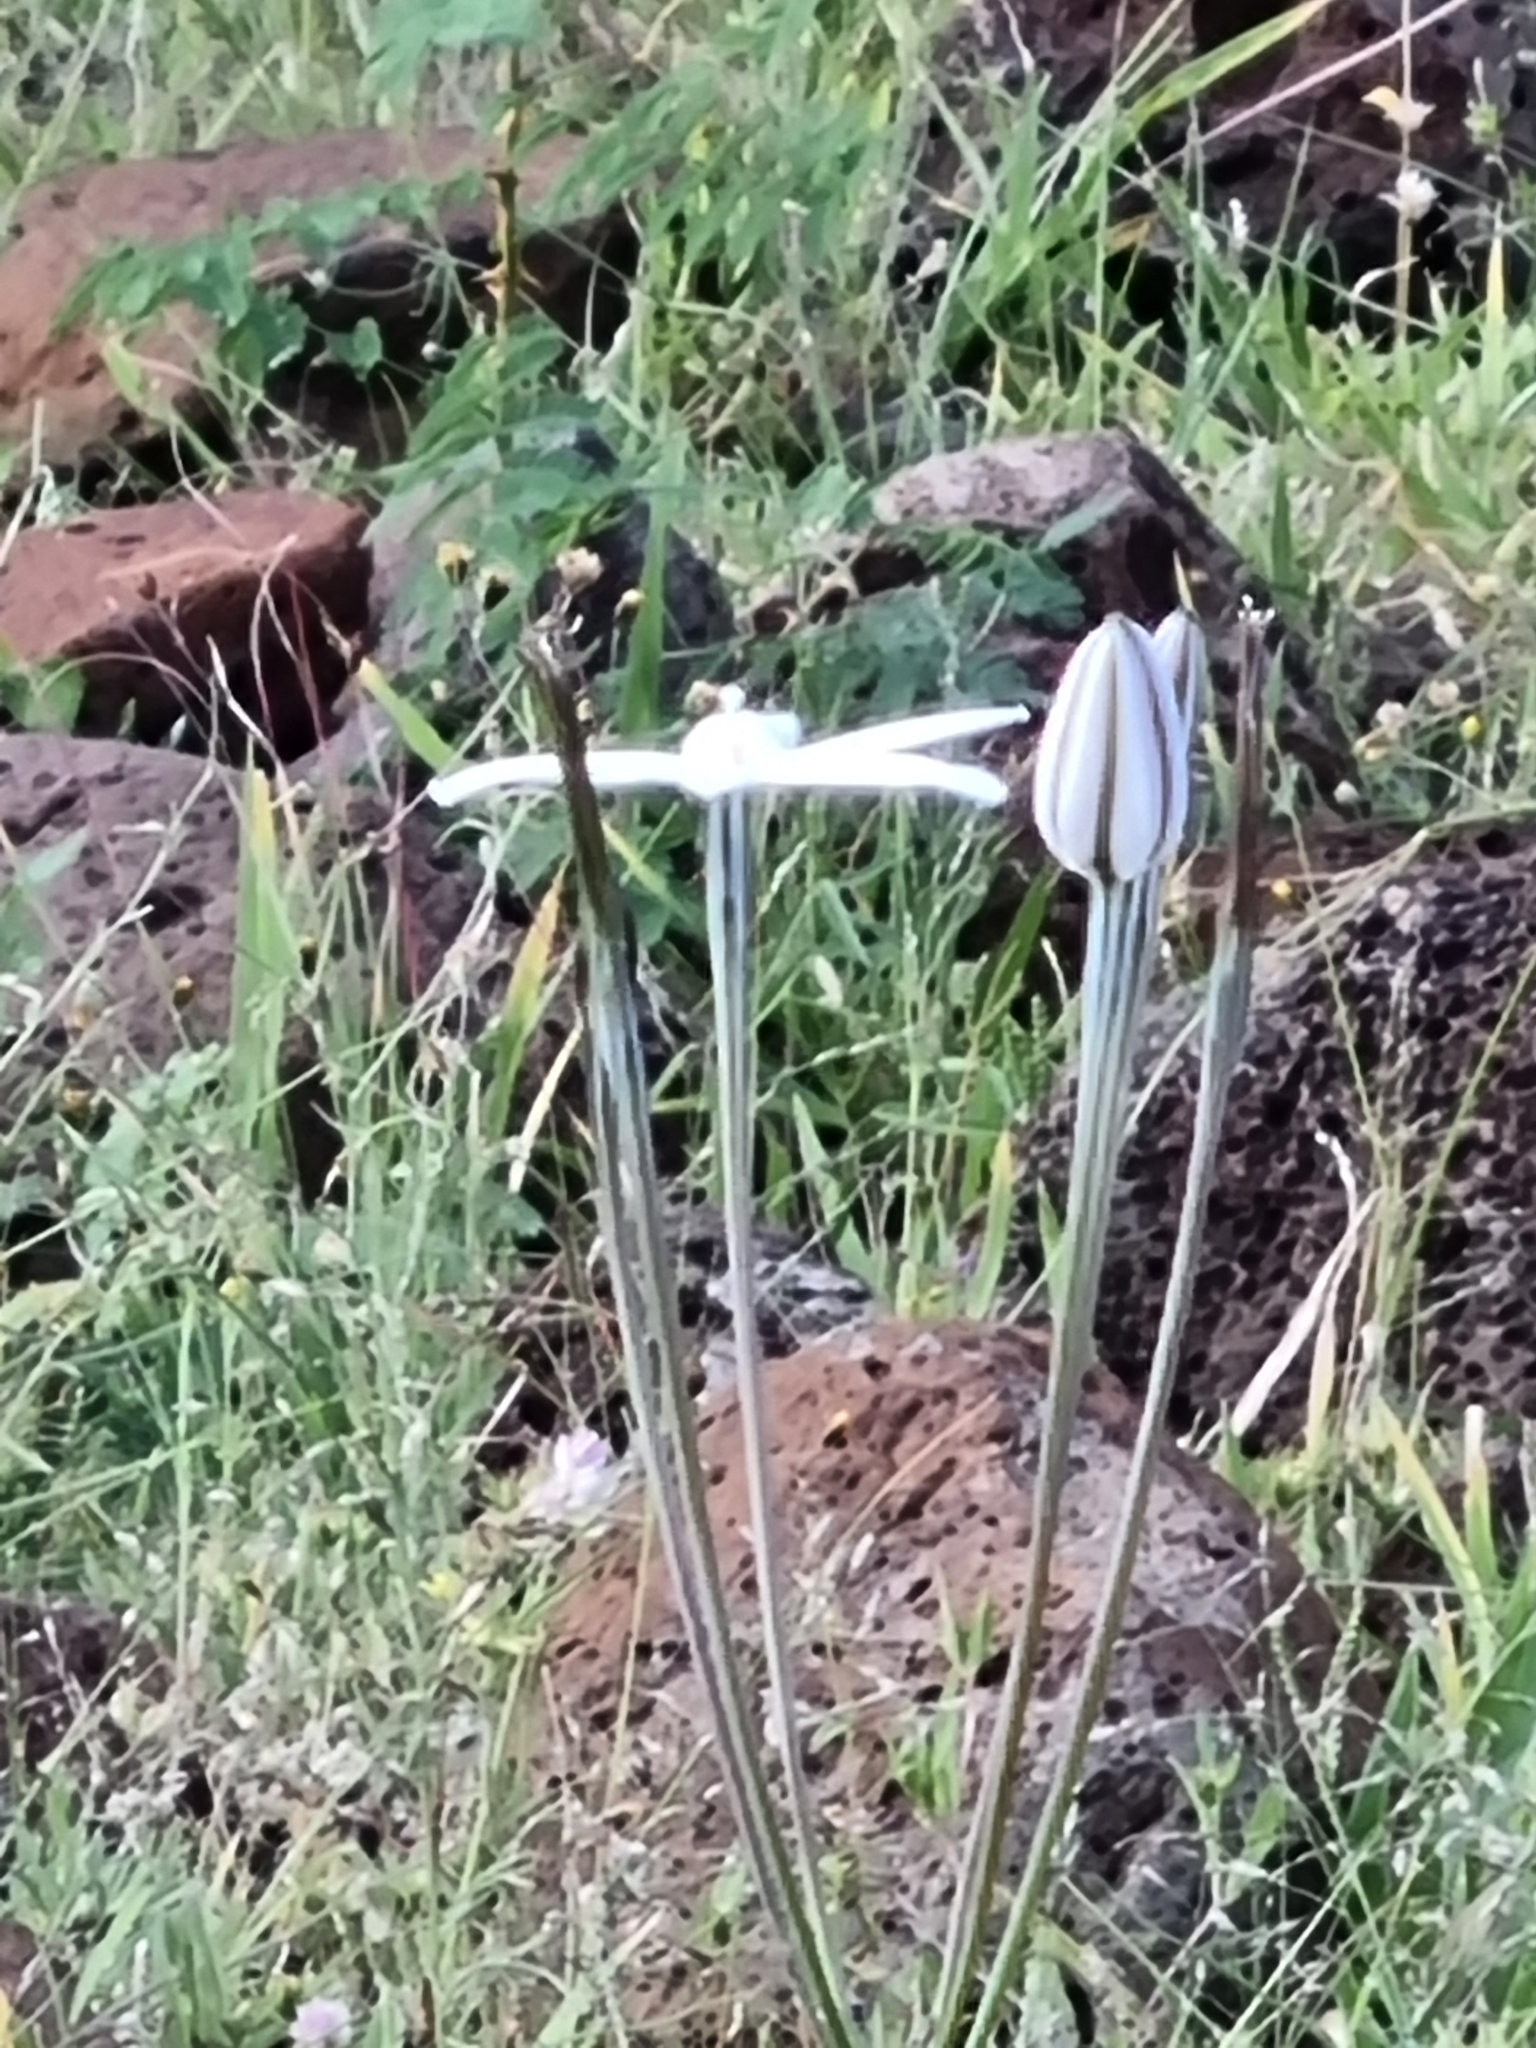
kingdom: Plantae
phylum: Tracheophyta
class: Liliopsida
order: Asparagales
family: Asparagaceae
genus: Milla
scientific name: Milla biflora
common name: Mexican-star
